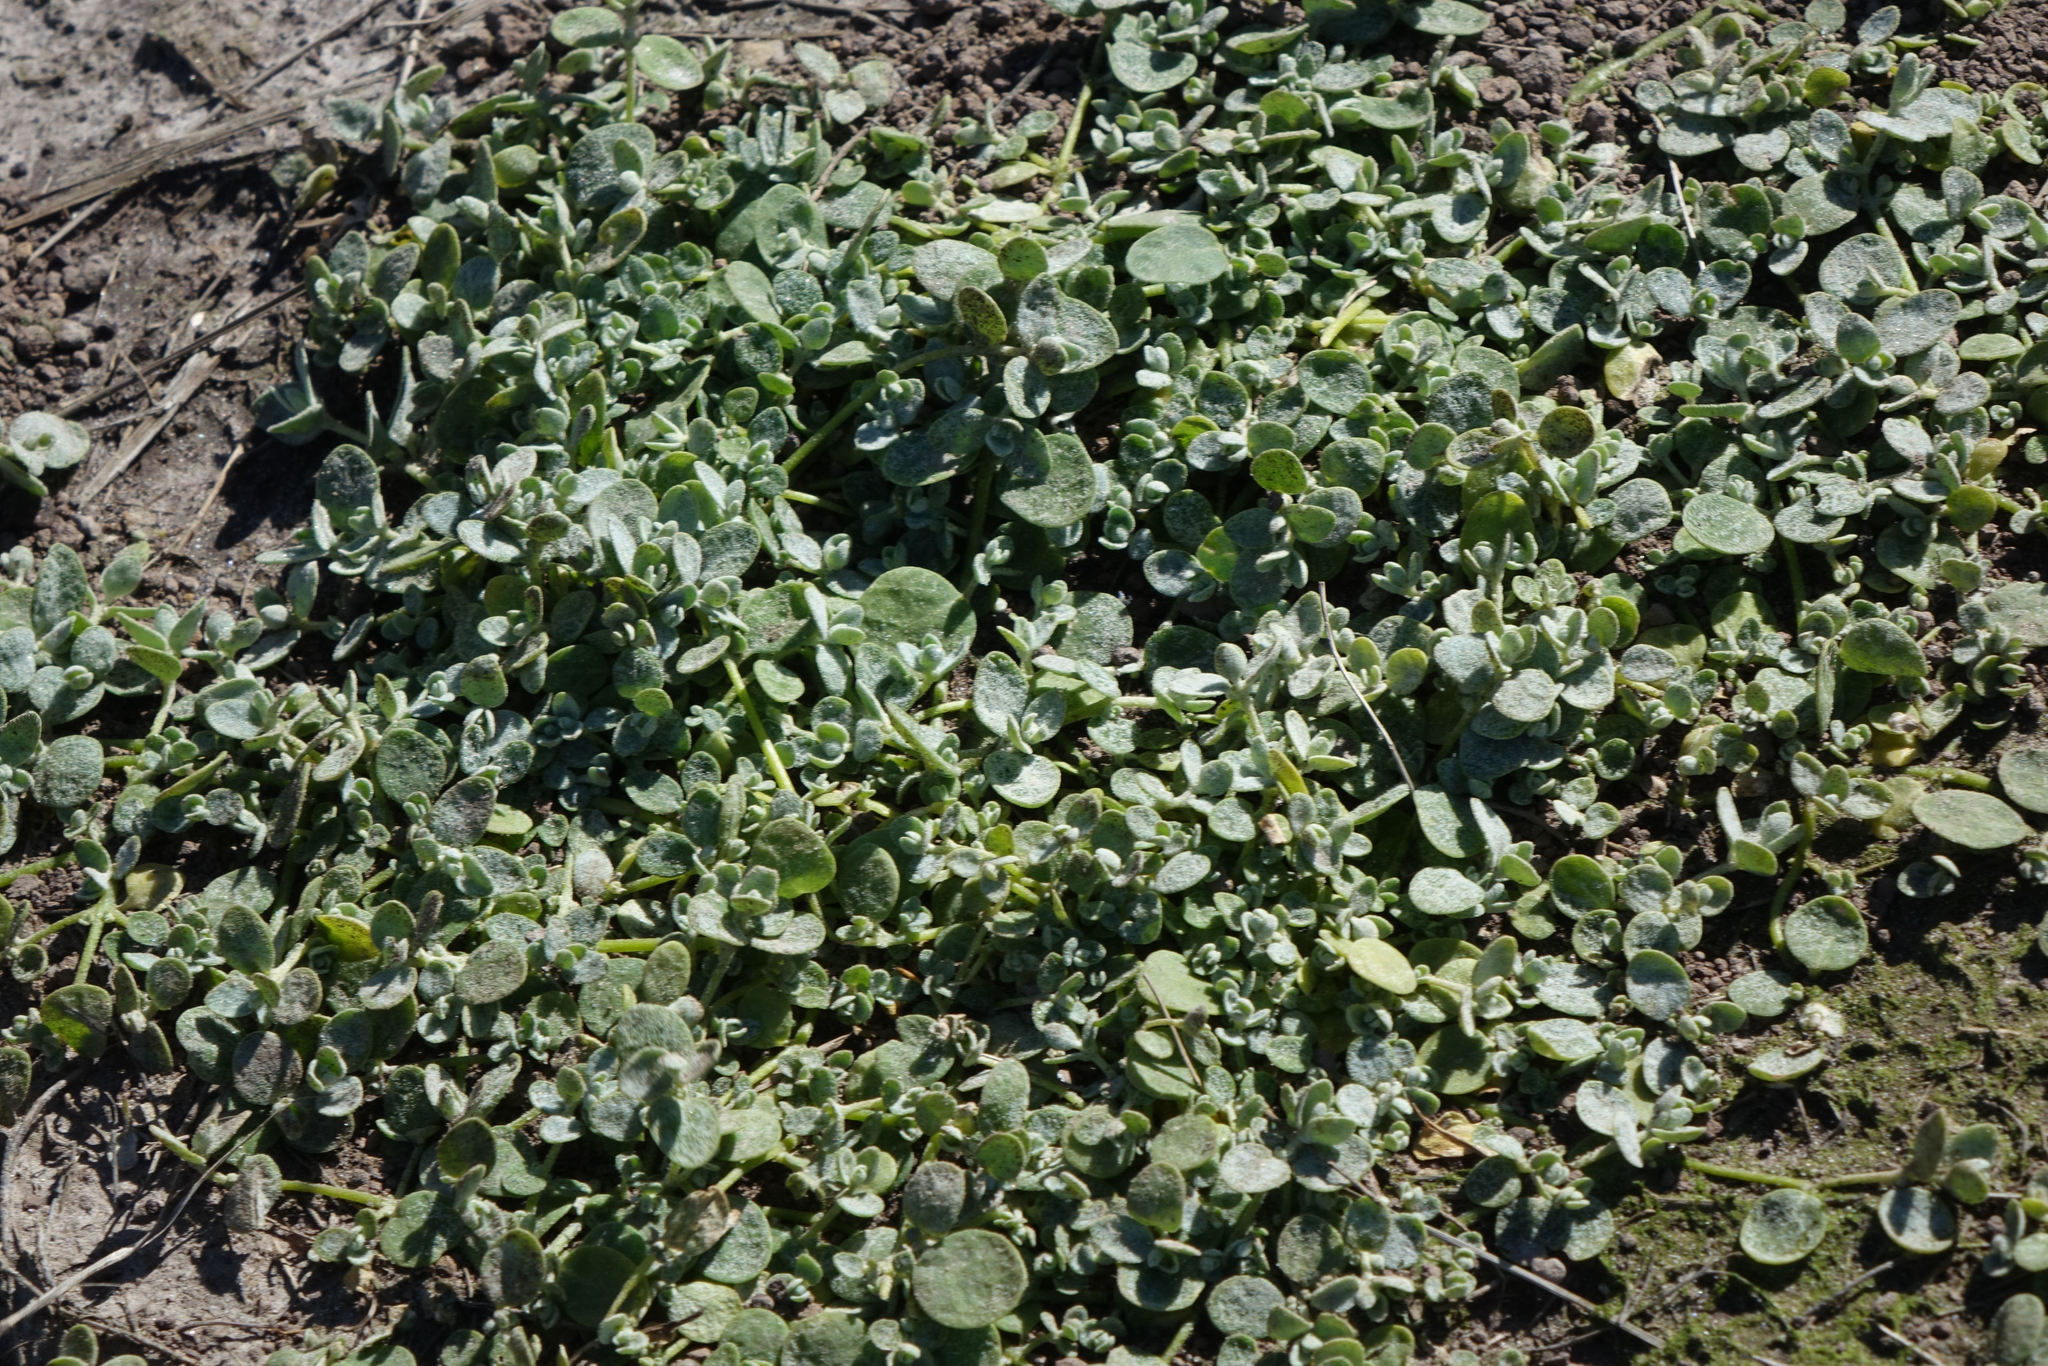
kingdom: Plantae
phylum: Tracheophyta
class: Magnoliopsida
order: Caryophyllales
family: Amaranthaceae
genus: Atriplex
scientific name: Atriplex buchananii
